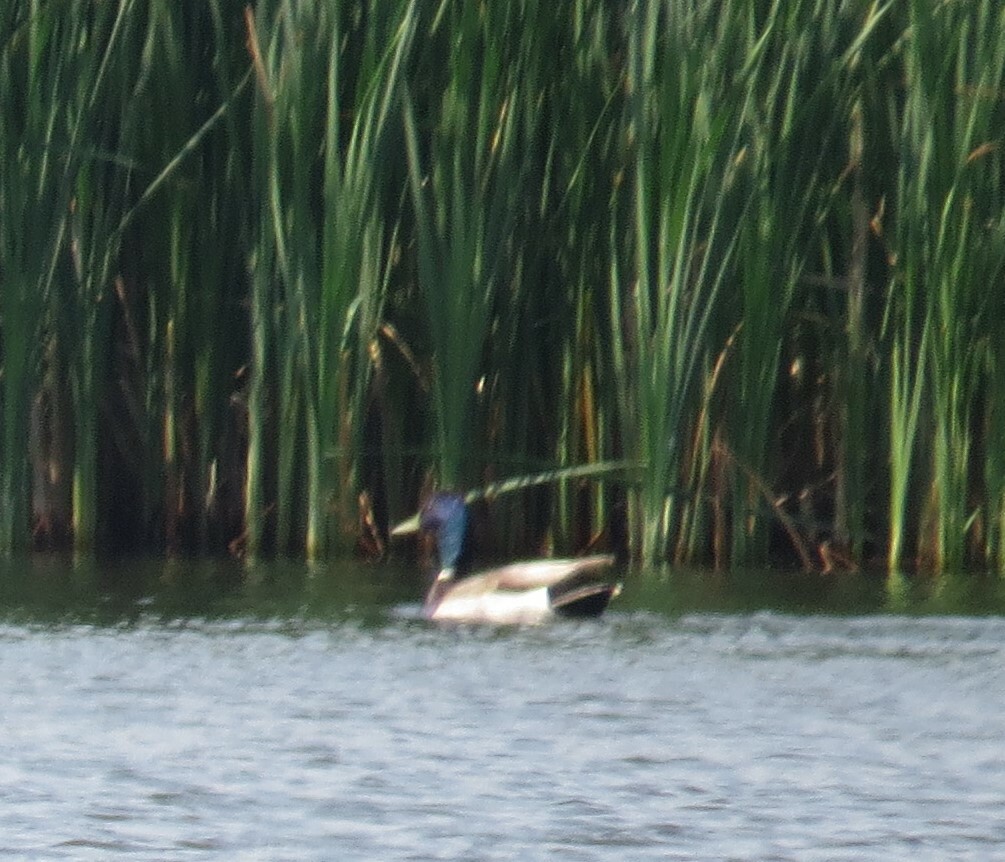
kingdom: Animalia
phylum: Chordata
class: Aves
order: Anseriformes
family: Anatidae
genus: Anas
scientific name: Anas platyrhynchos
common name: Mallard
